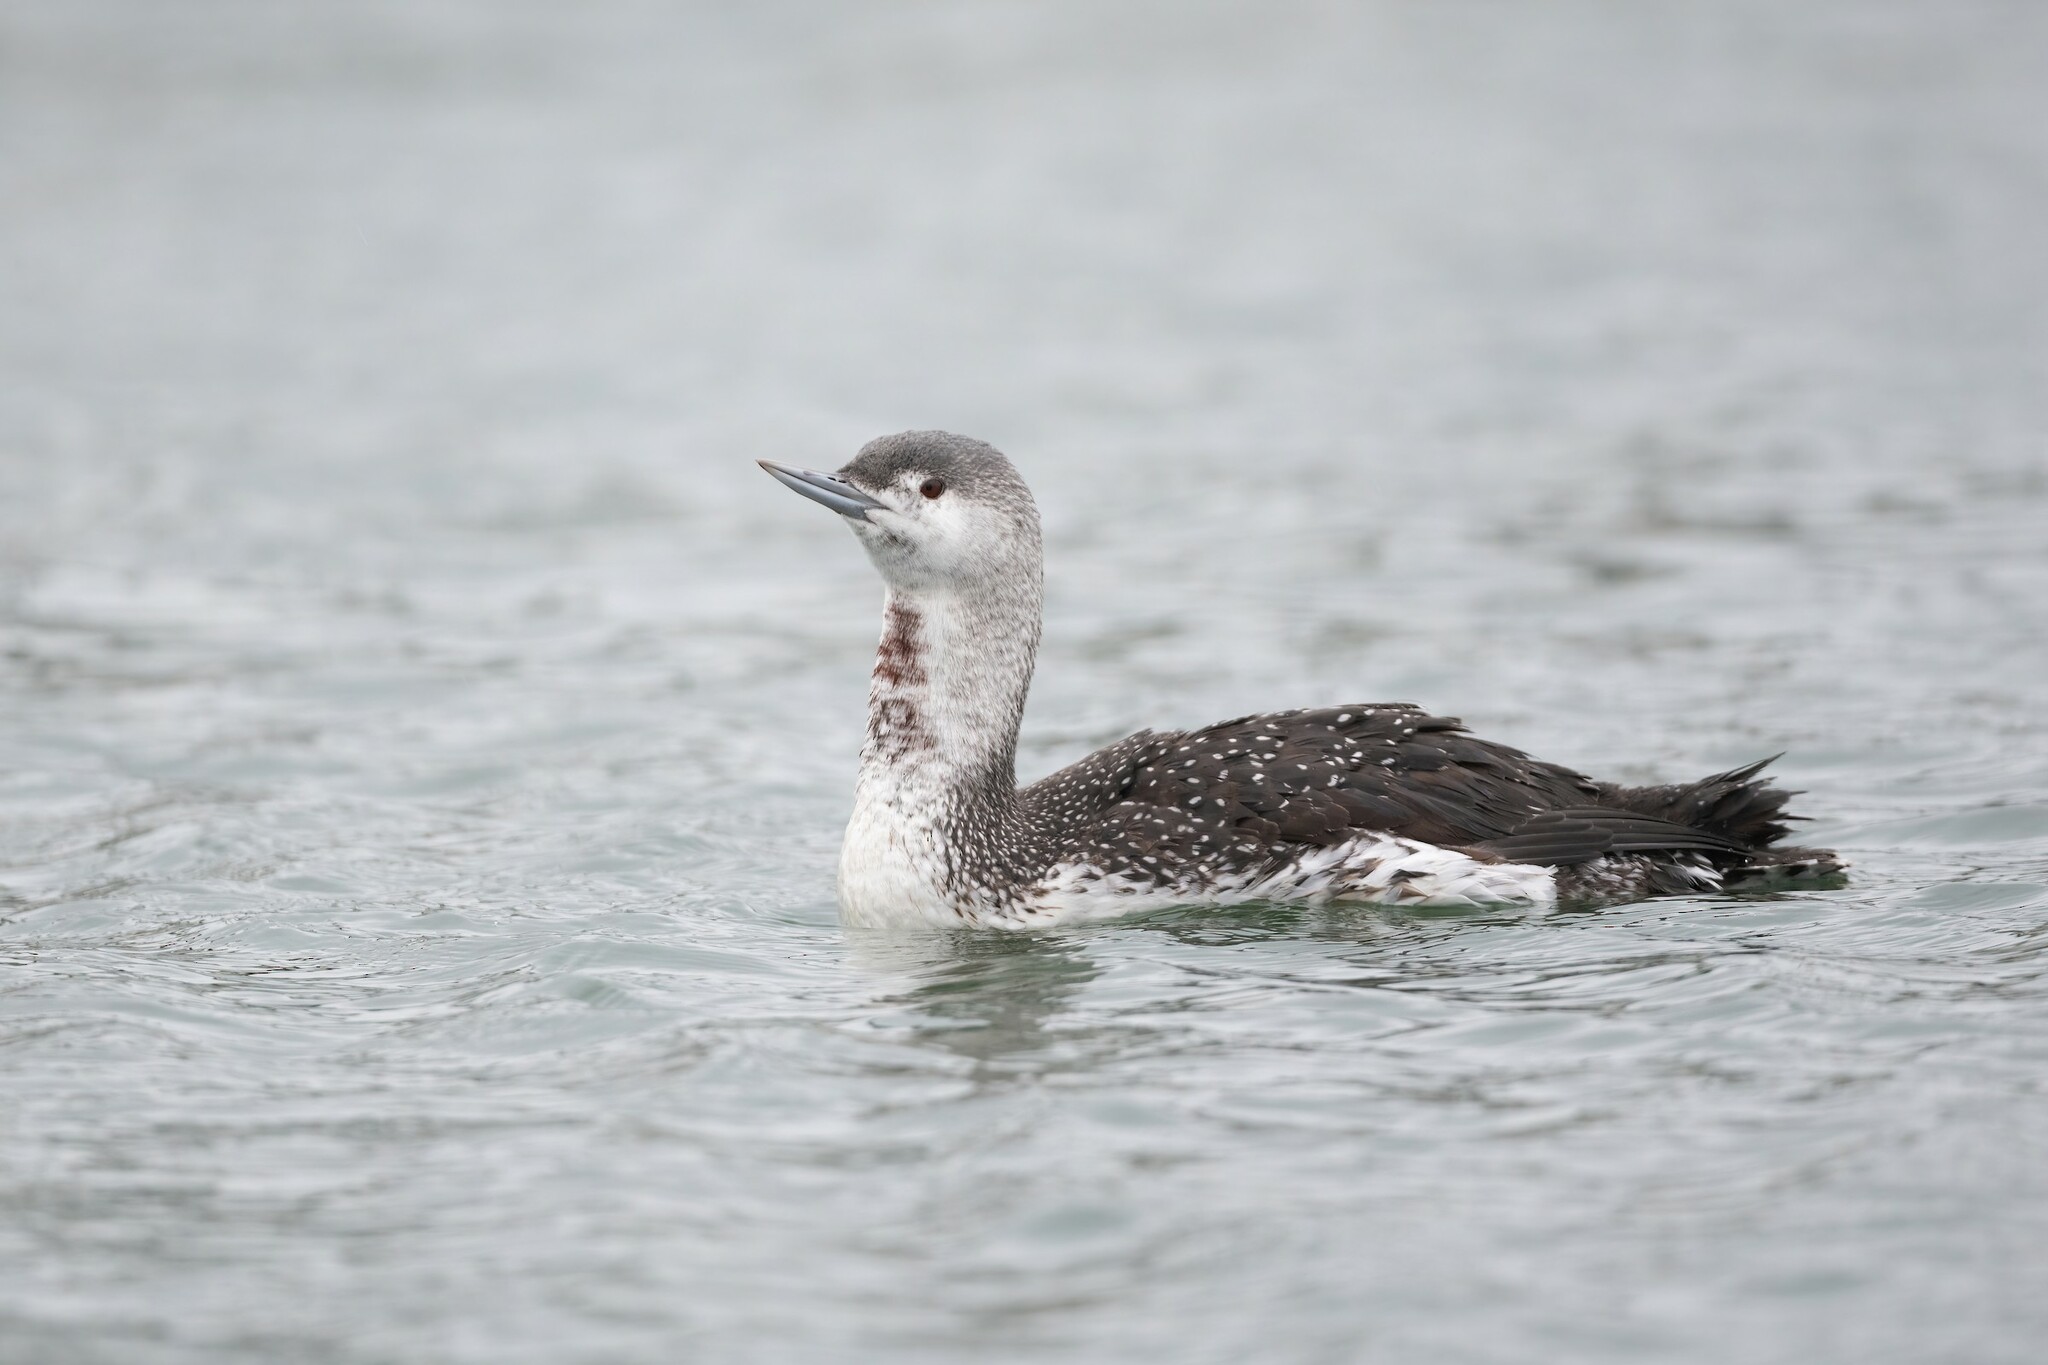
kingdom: Animalia
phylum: Chordata
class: Aves
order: Gaviiformes
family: Gaviidae
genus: Gavia
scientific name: Gavia stellata
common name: Red-throated loon
